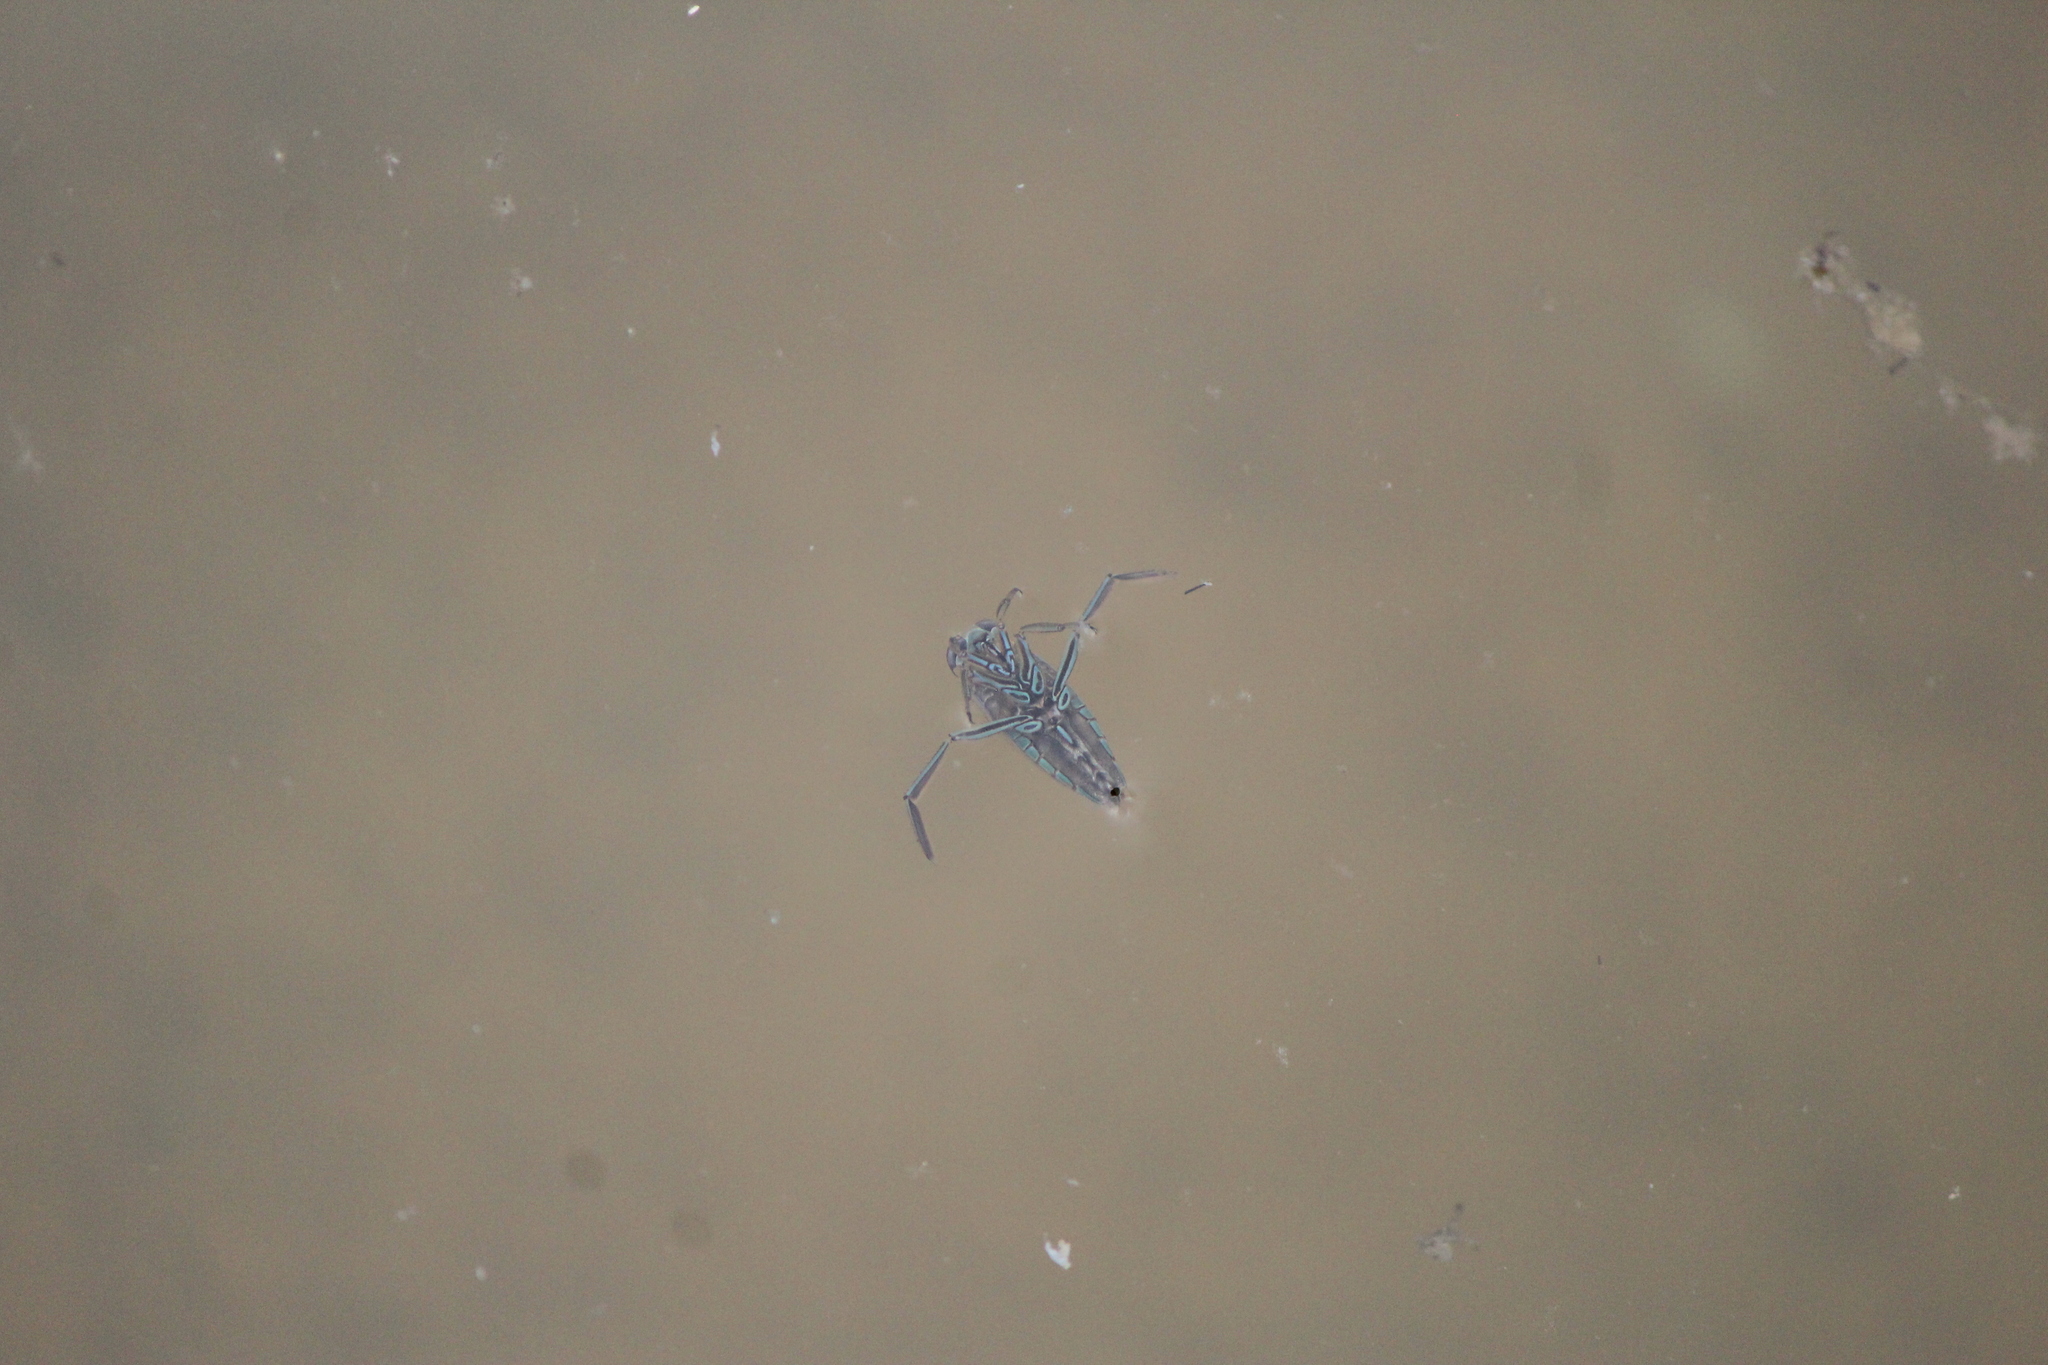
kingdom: Animalia
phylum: Arthropoda
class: Insecta
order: Hemiptera
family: Notonectidae
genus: Notonecta
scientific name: Notonecta
